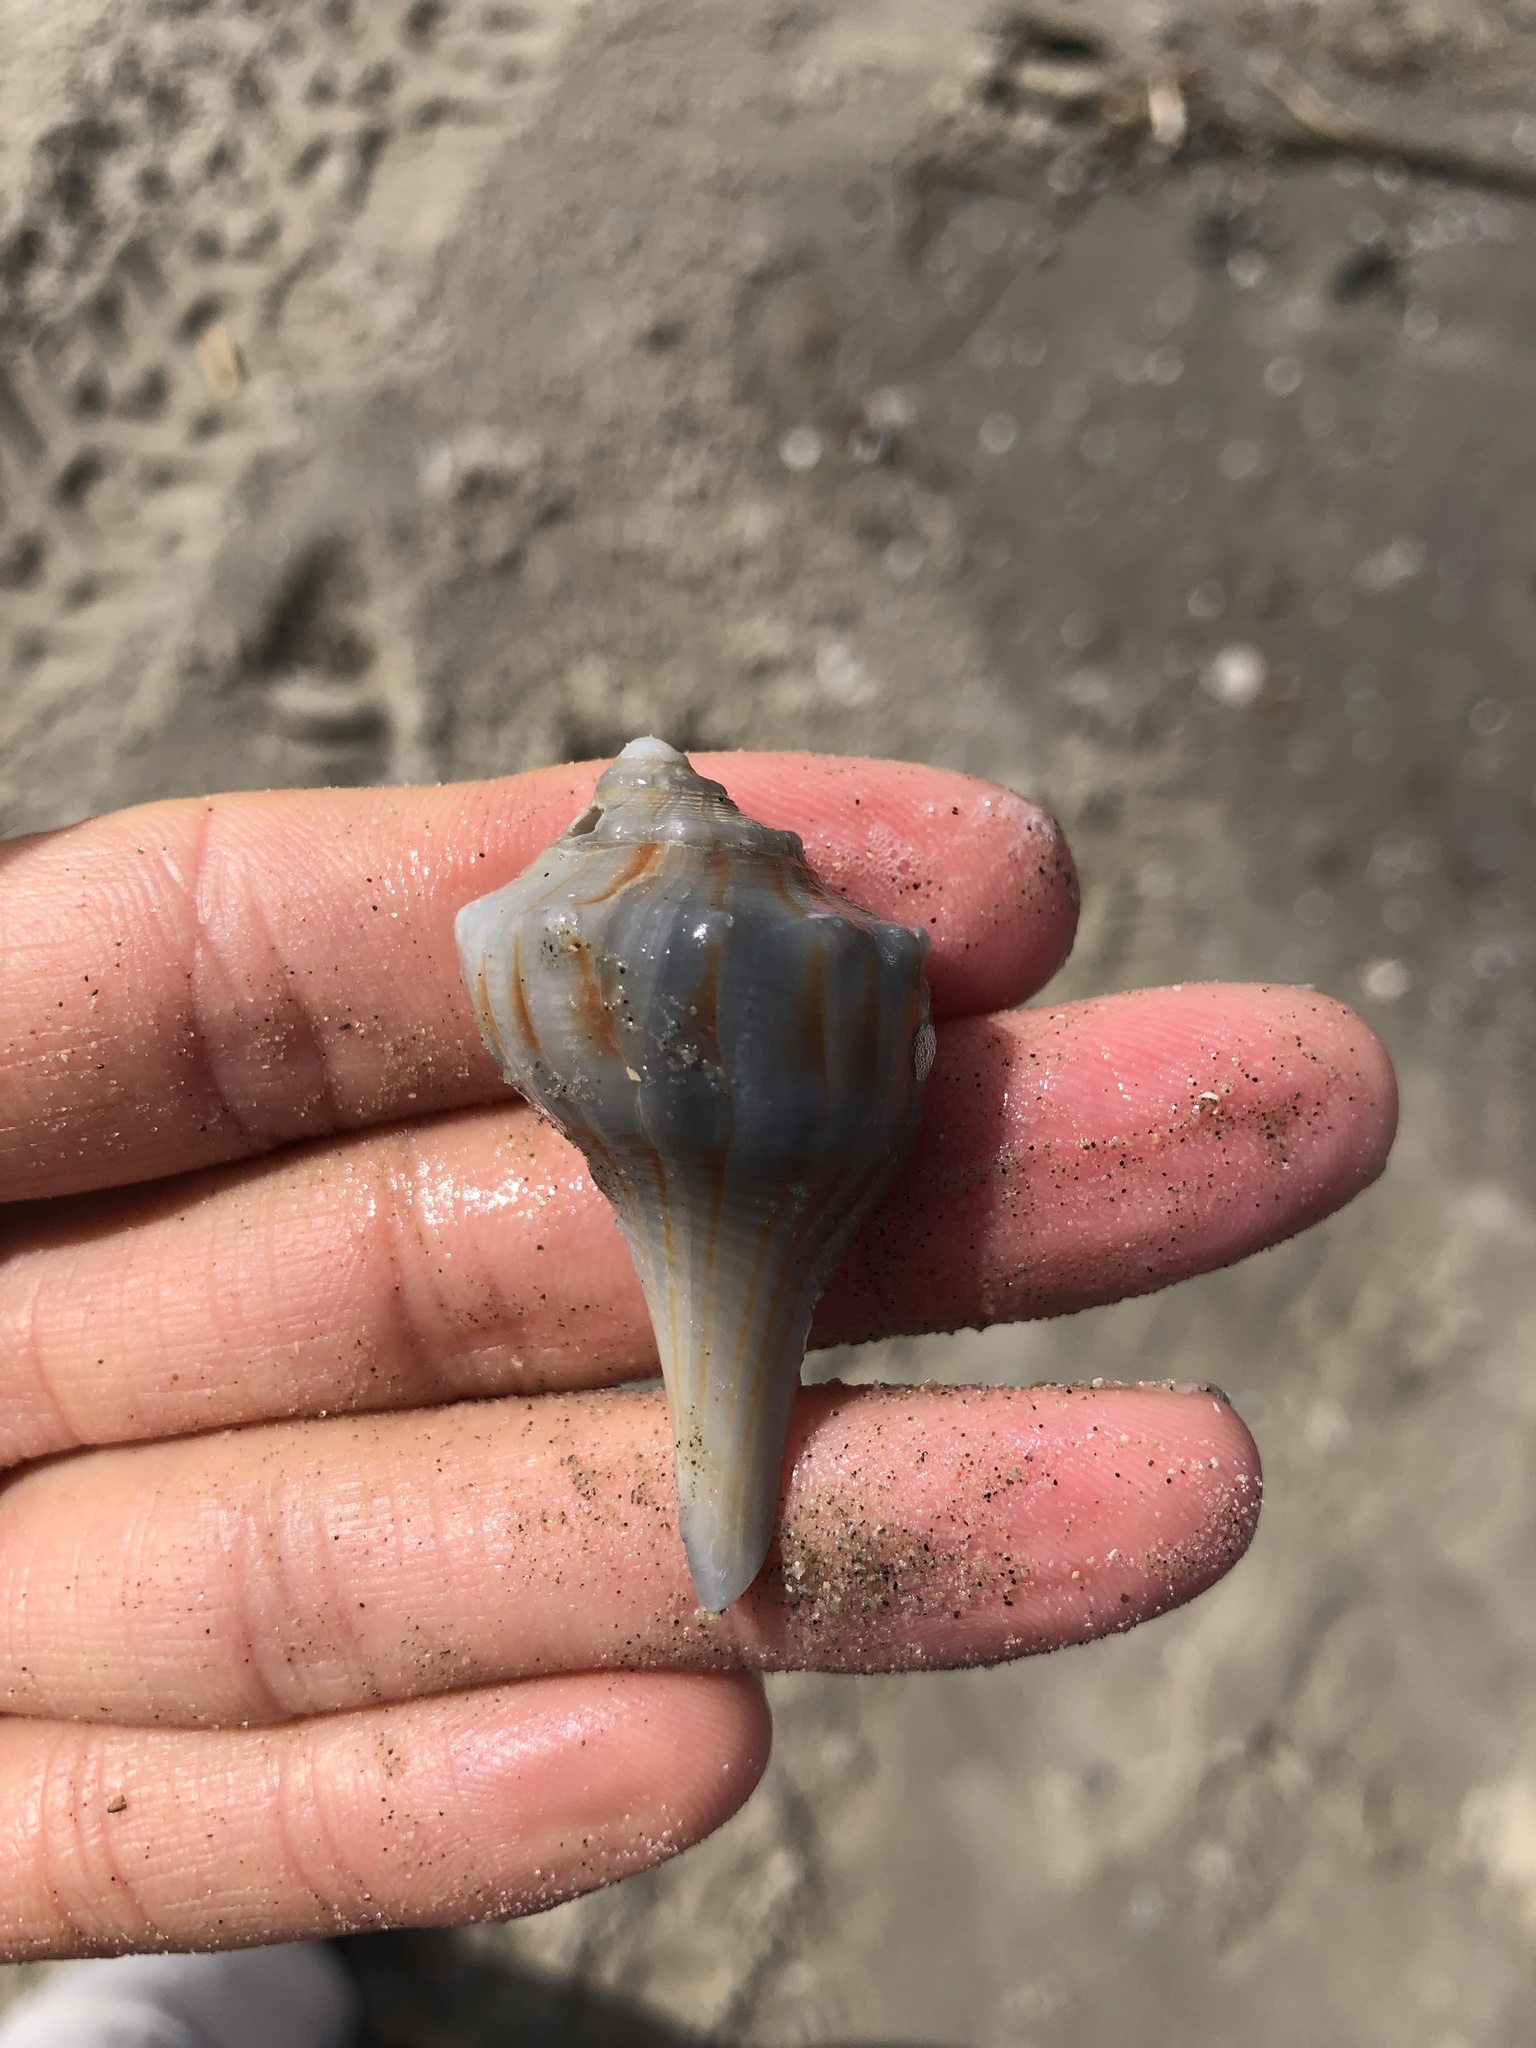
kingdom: Animalia
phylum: Mollusca
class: Gastropoda
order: Neogastropoda
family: Busyconidae
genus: Sinistrofulgur
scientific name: Sinistrofulgur pulleyi
